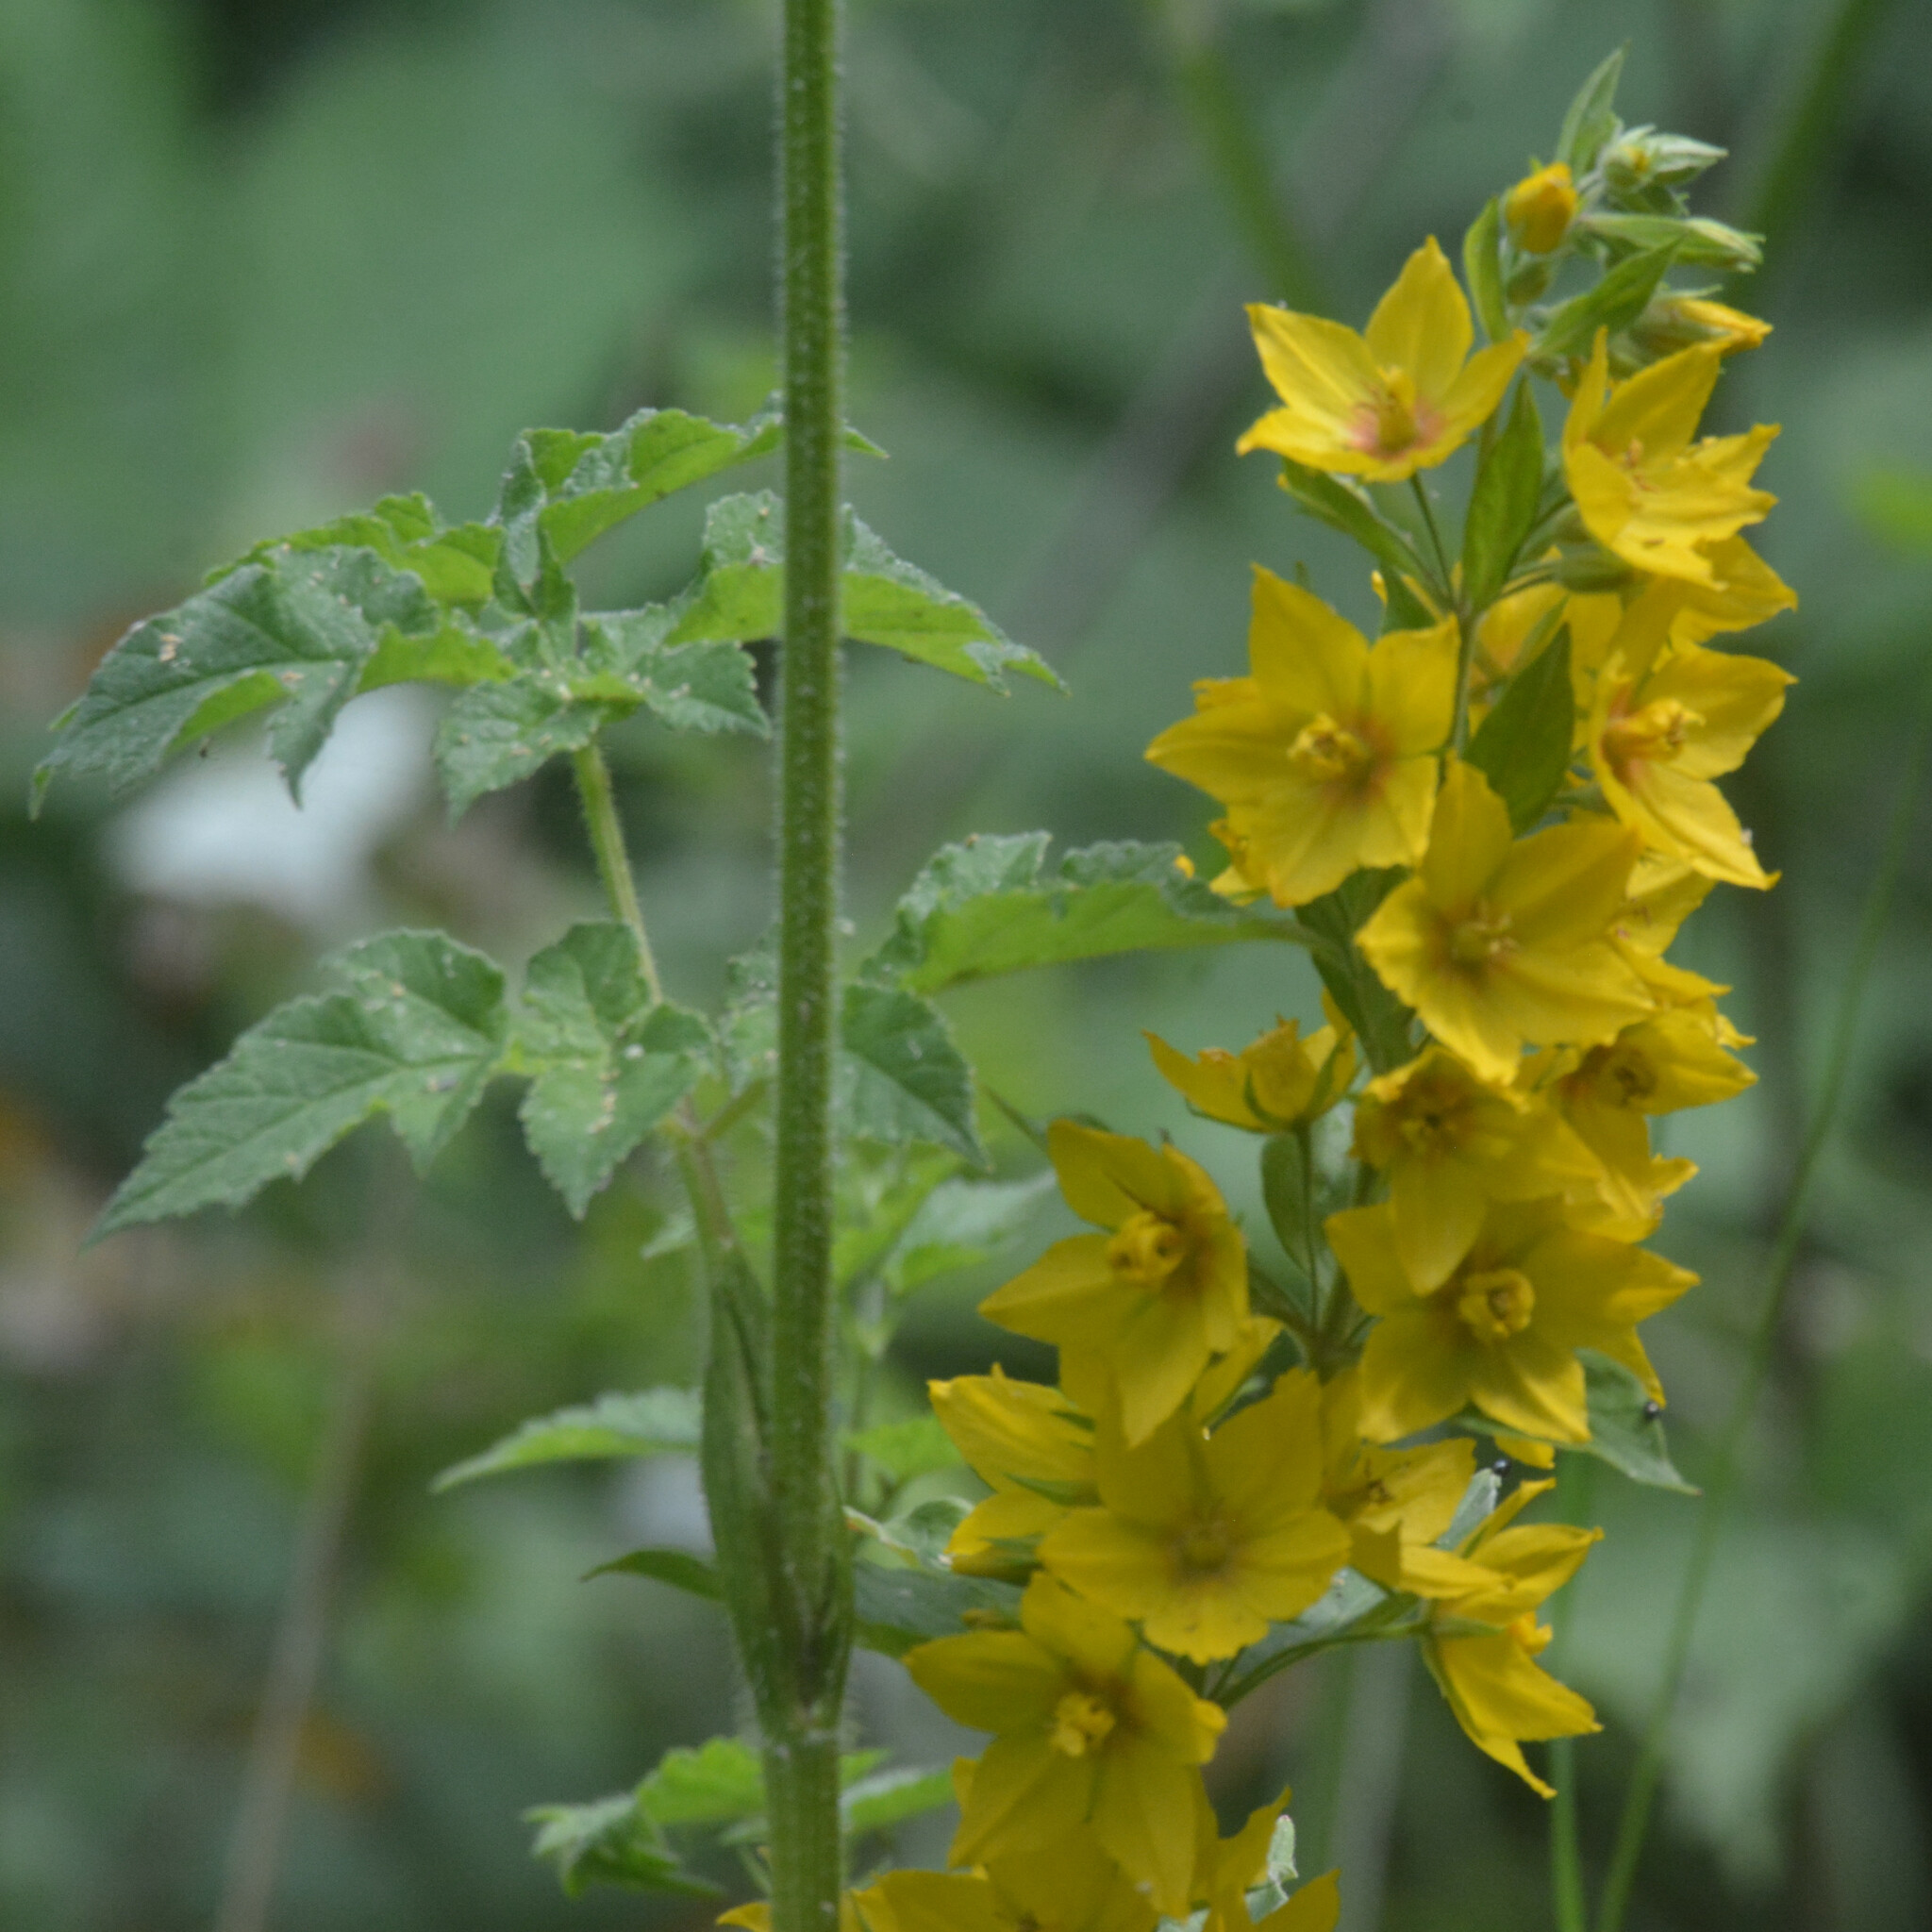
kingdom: Plantae
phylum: Tracheophyta
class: Magnoliopsida
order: Ericales
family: Primulaceae
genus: Lysimachia
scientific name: Lysimachia punctata
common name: Dotted loosestrife
